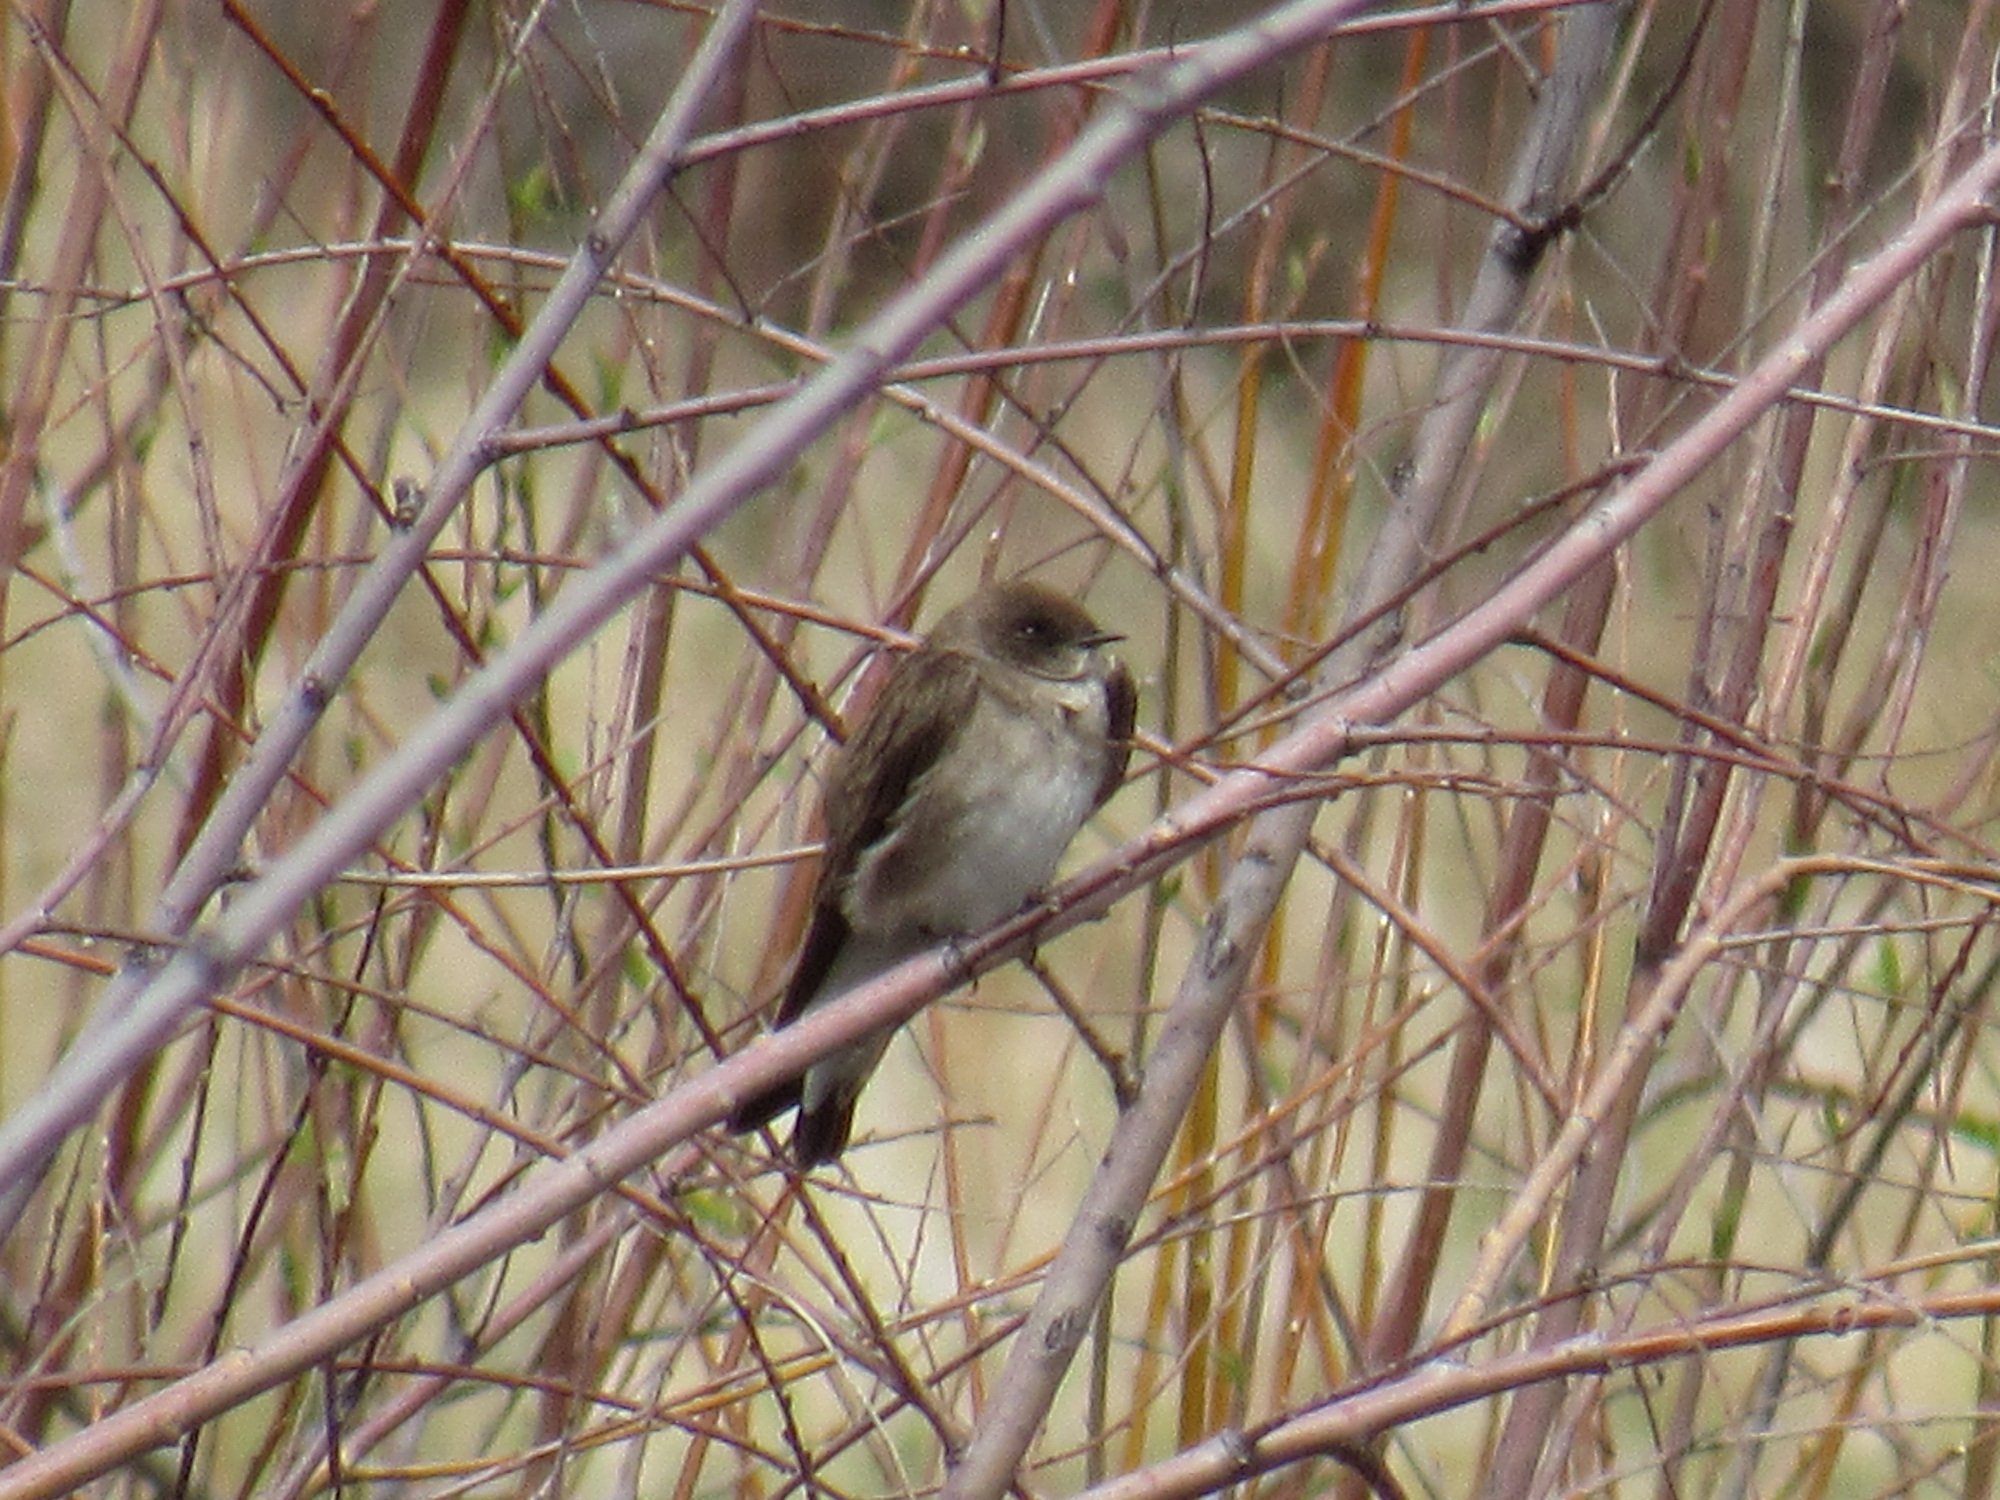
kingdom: Animalia
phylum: Chordata
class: Aves
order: Passeriformes
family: Hirundinidae
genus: Stelgidopteryx
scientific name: Stelgidopteryx serripennis
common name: Northern rough-winged swallow
